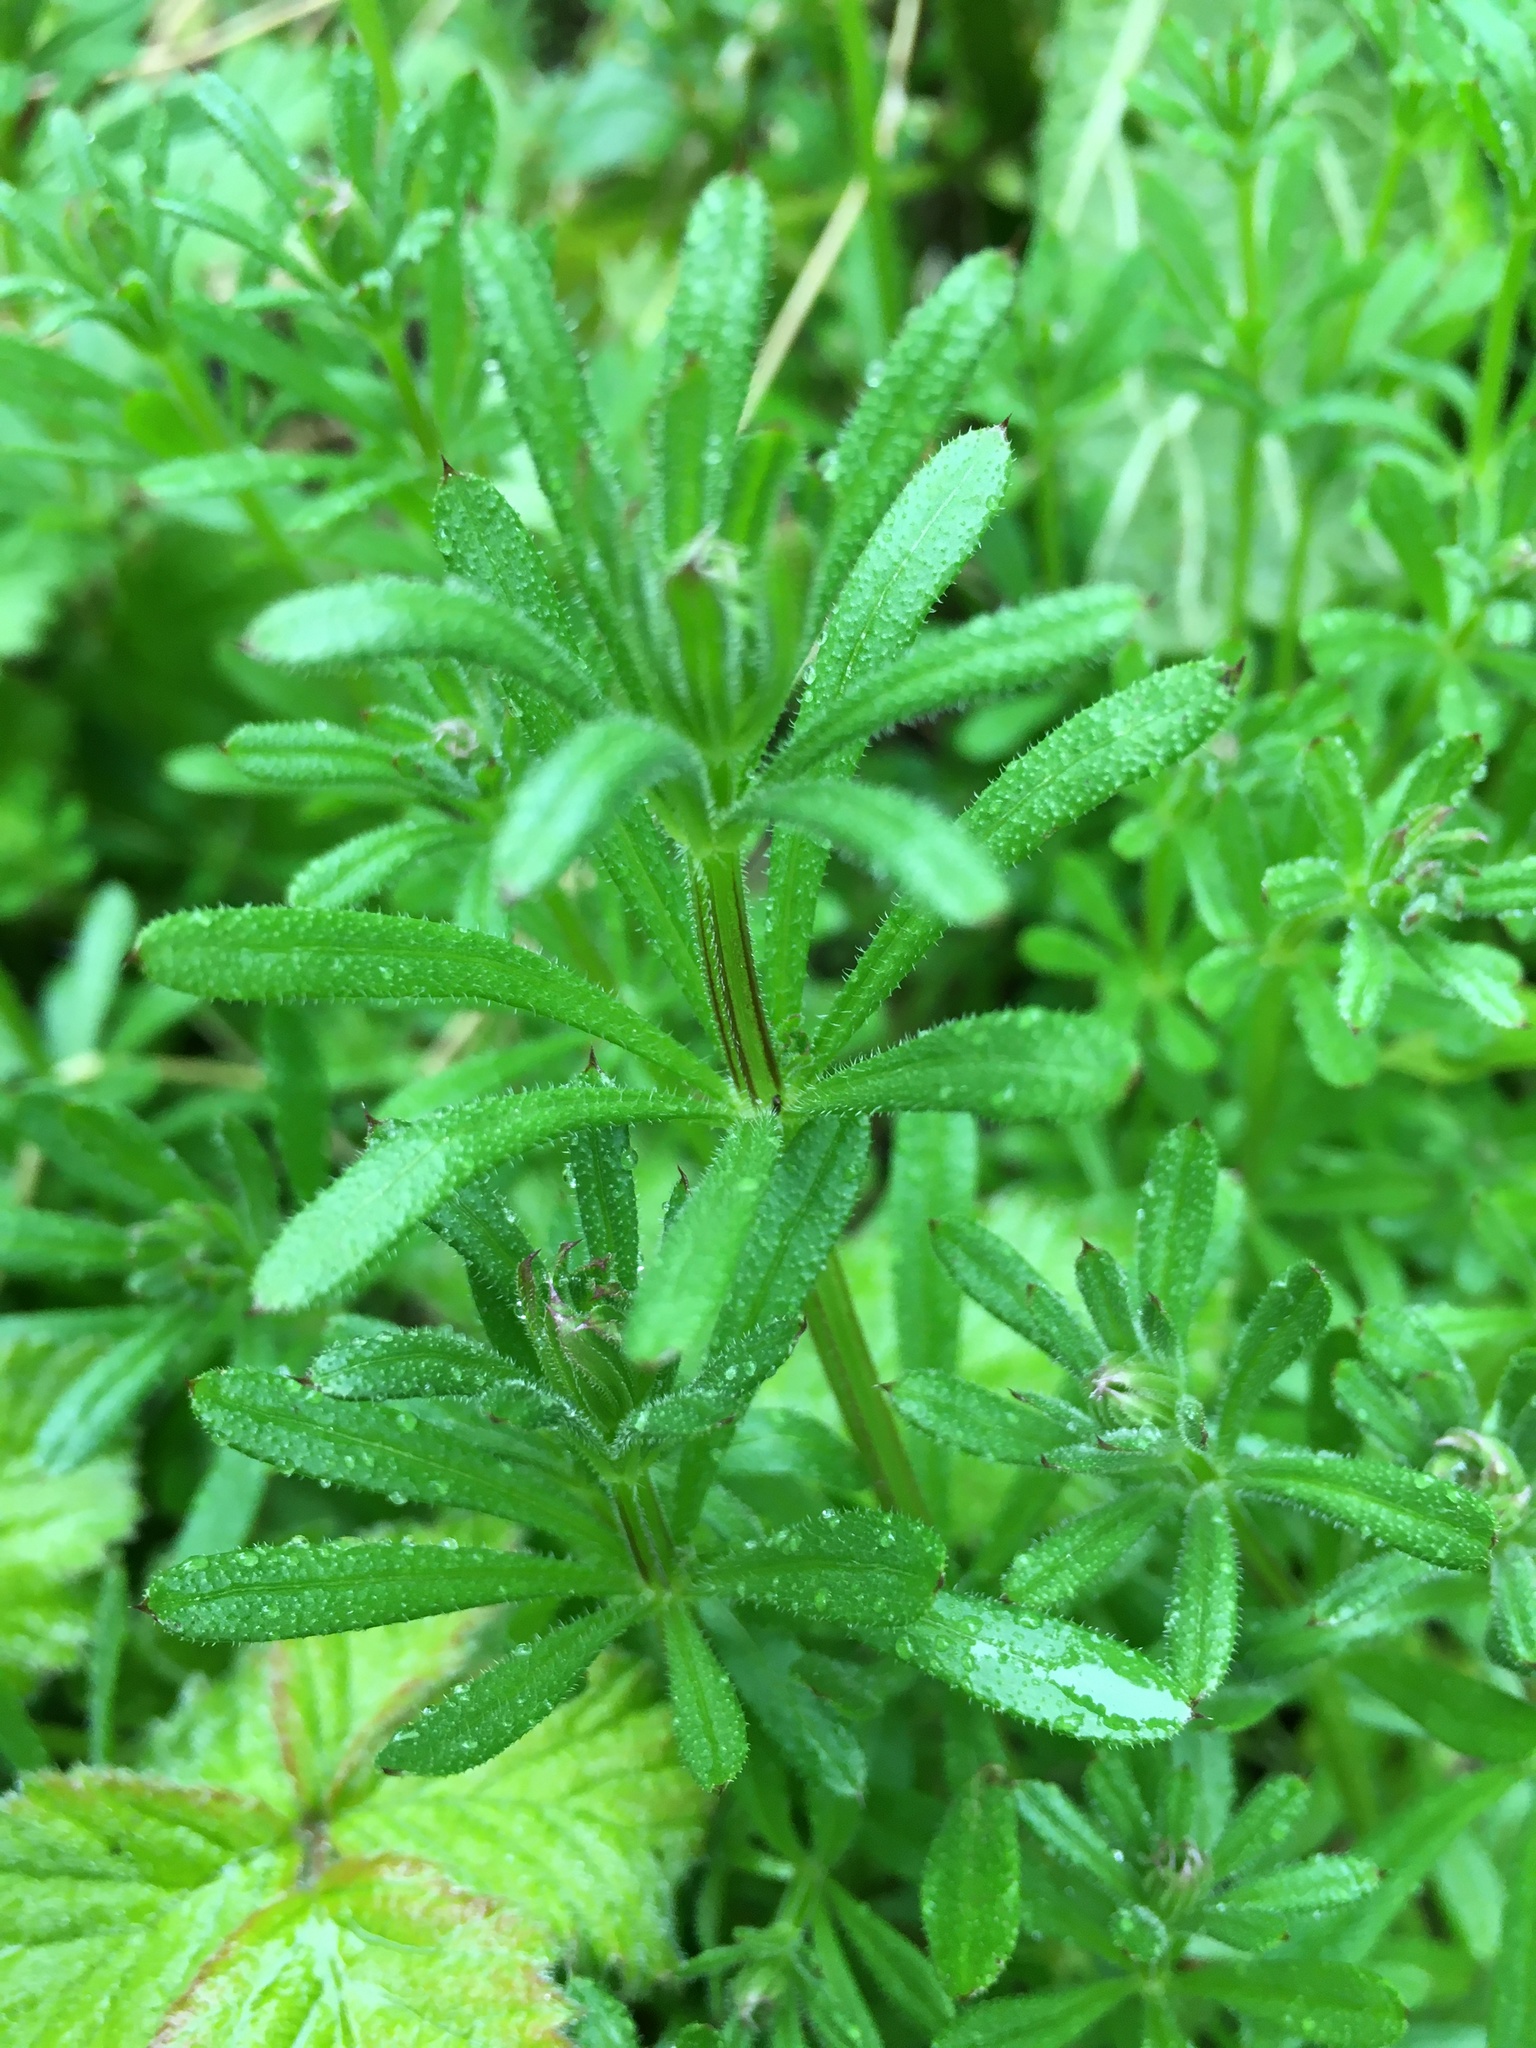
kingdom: Plantae
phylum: Tracheophyta
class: Magnoliopsida
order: Gentianales
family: Rubiaceae
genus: Galium
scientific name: Galium aparine
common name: Cleavers
